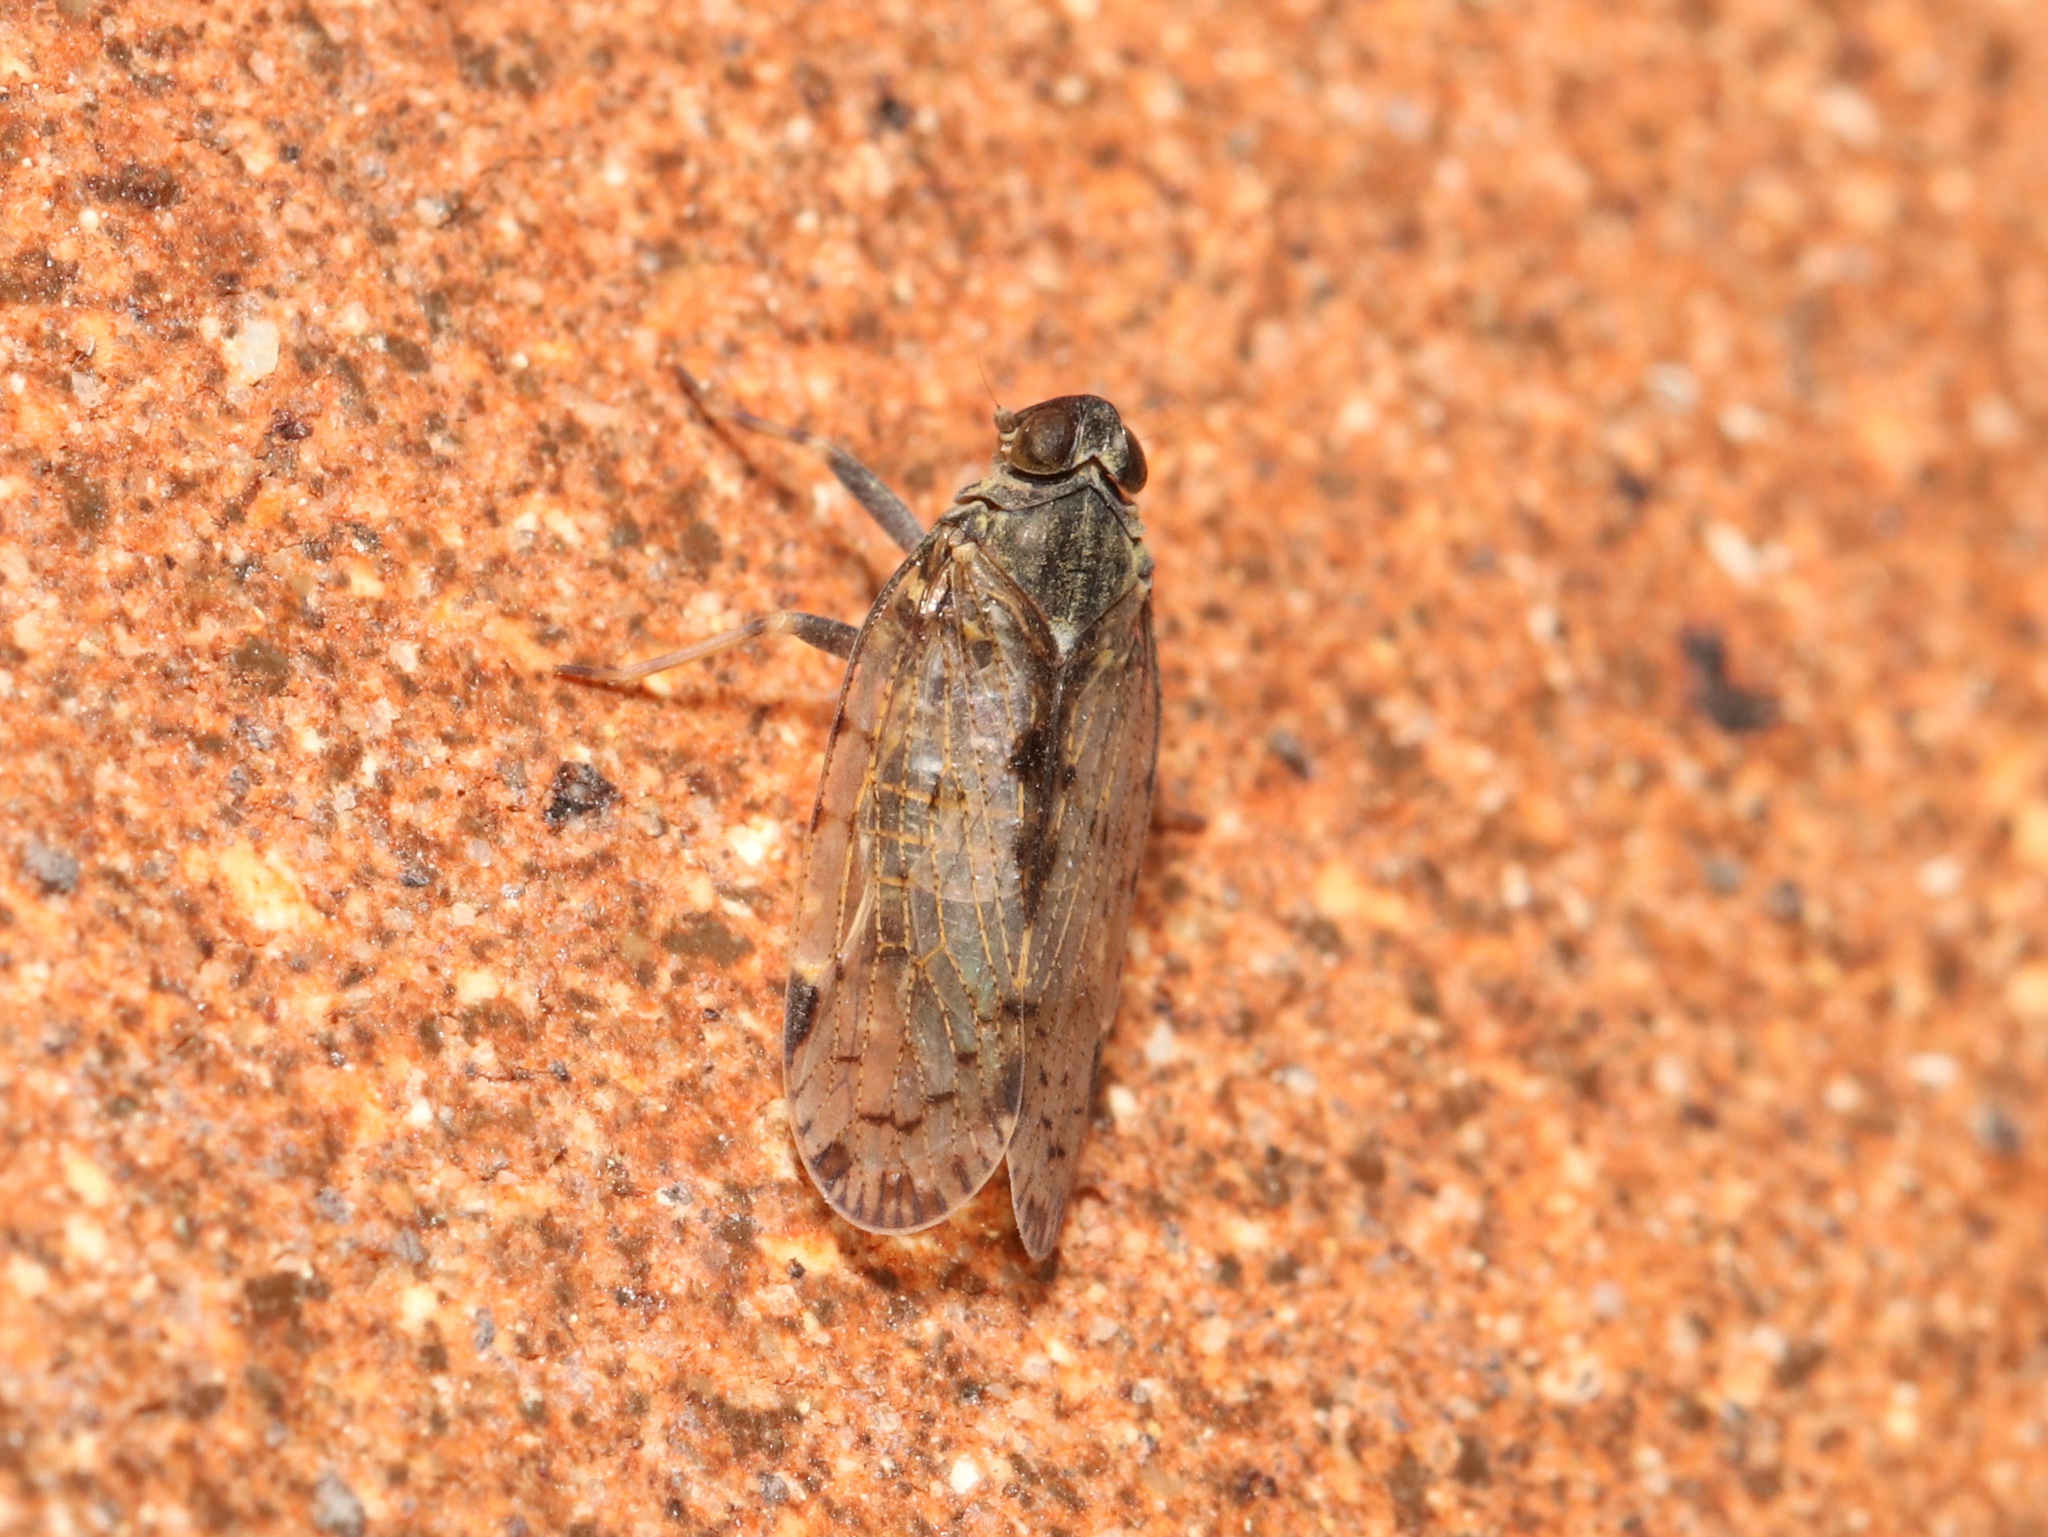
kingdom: Animalia
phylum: Arthropoda
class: Insecta
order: Hemiptera
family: Cixiidae
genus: Melanoliarus
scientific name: Melanoliarus placitus
